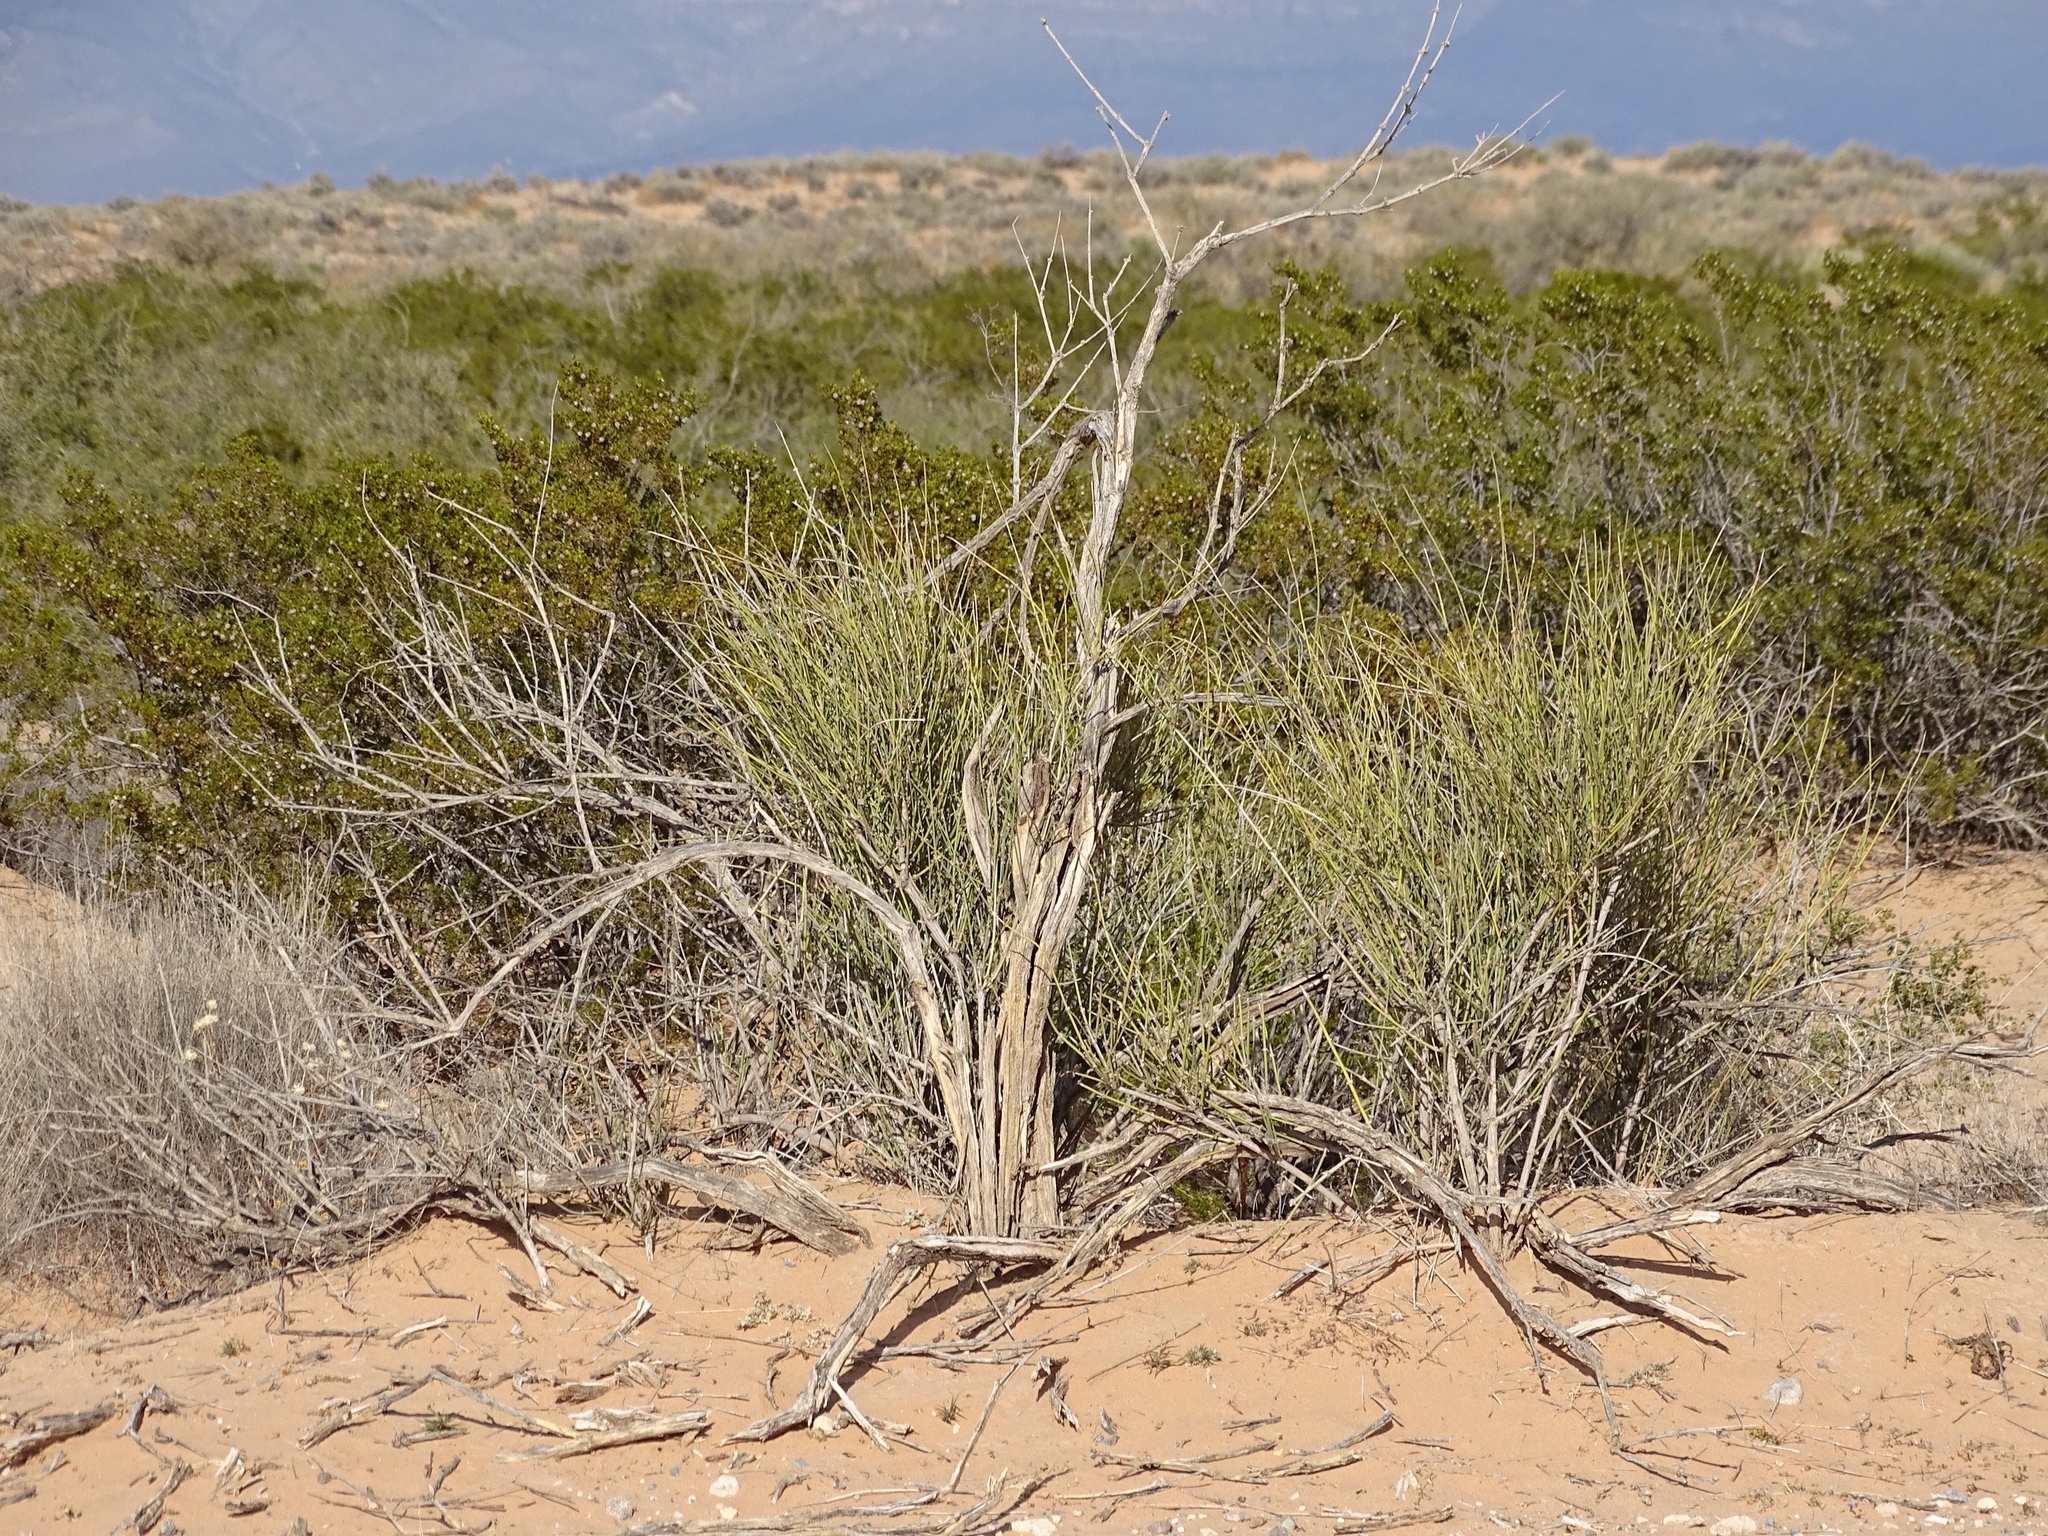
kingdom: Plantae
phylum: Tracheophyta
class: Gnetopsida
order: Ephedrales
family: Ephedraceae
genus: Ephedra
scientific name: Ephedra trifurca
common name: Mexican-tea
